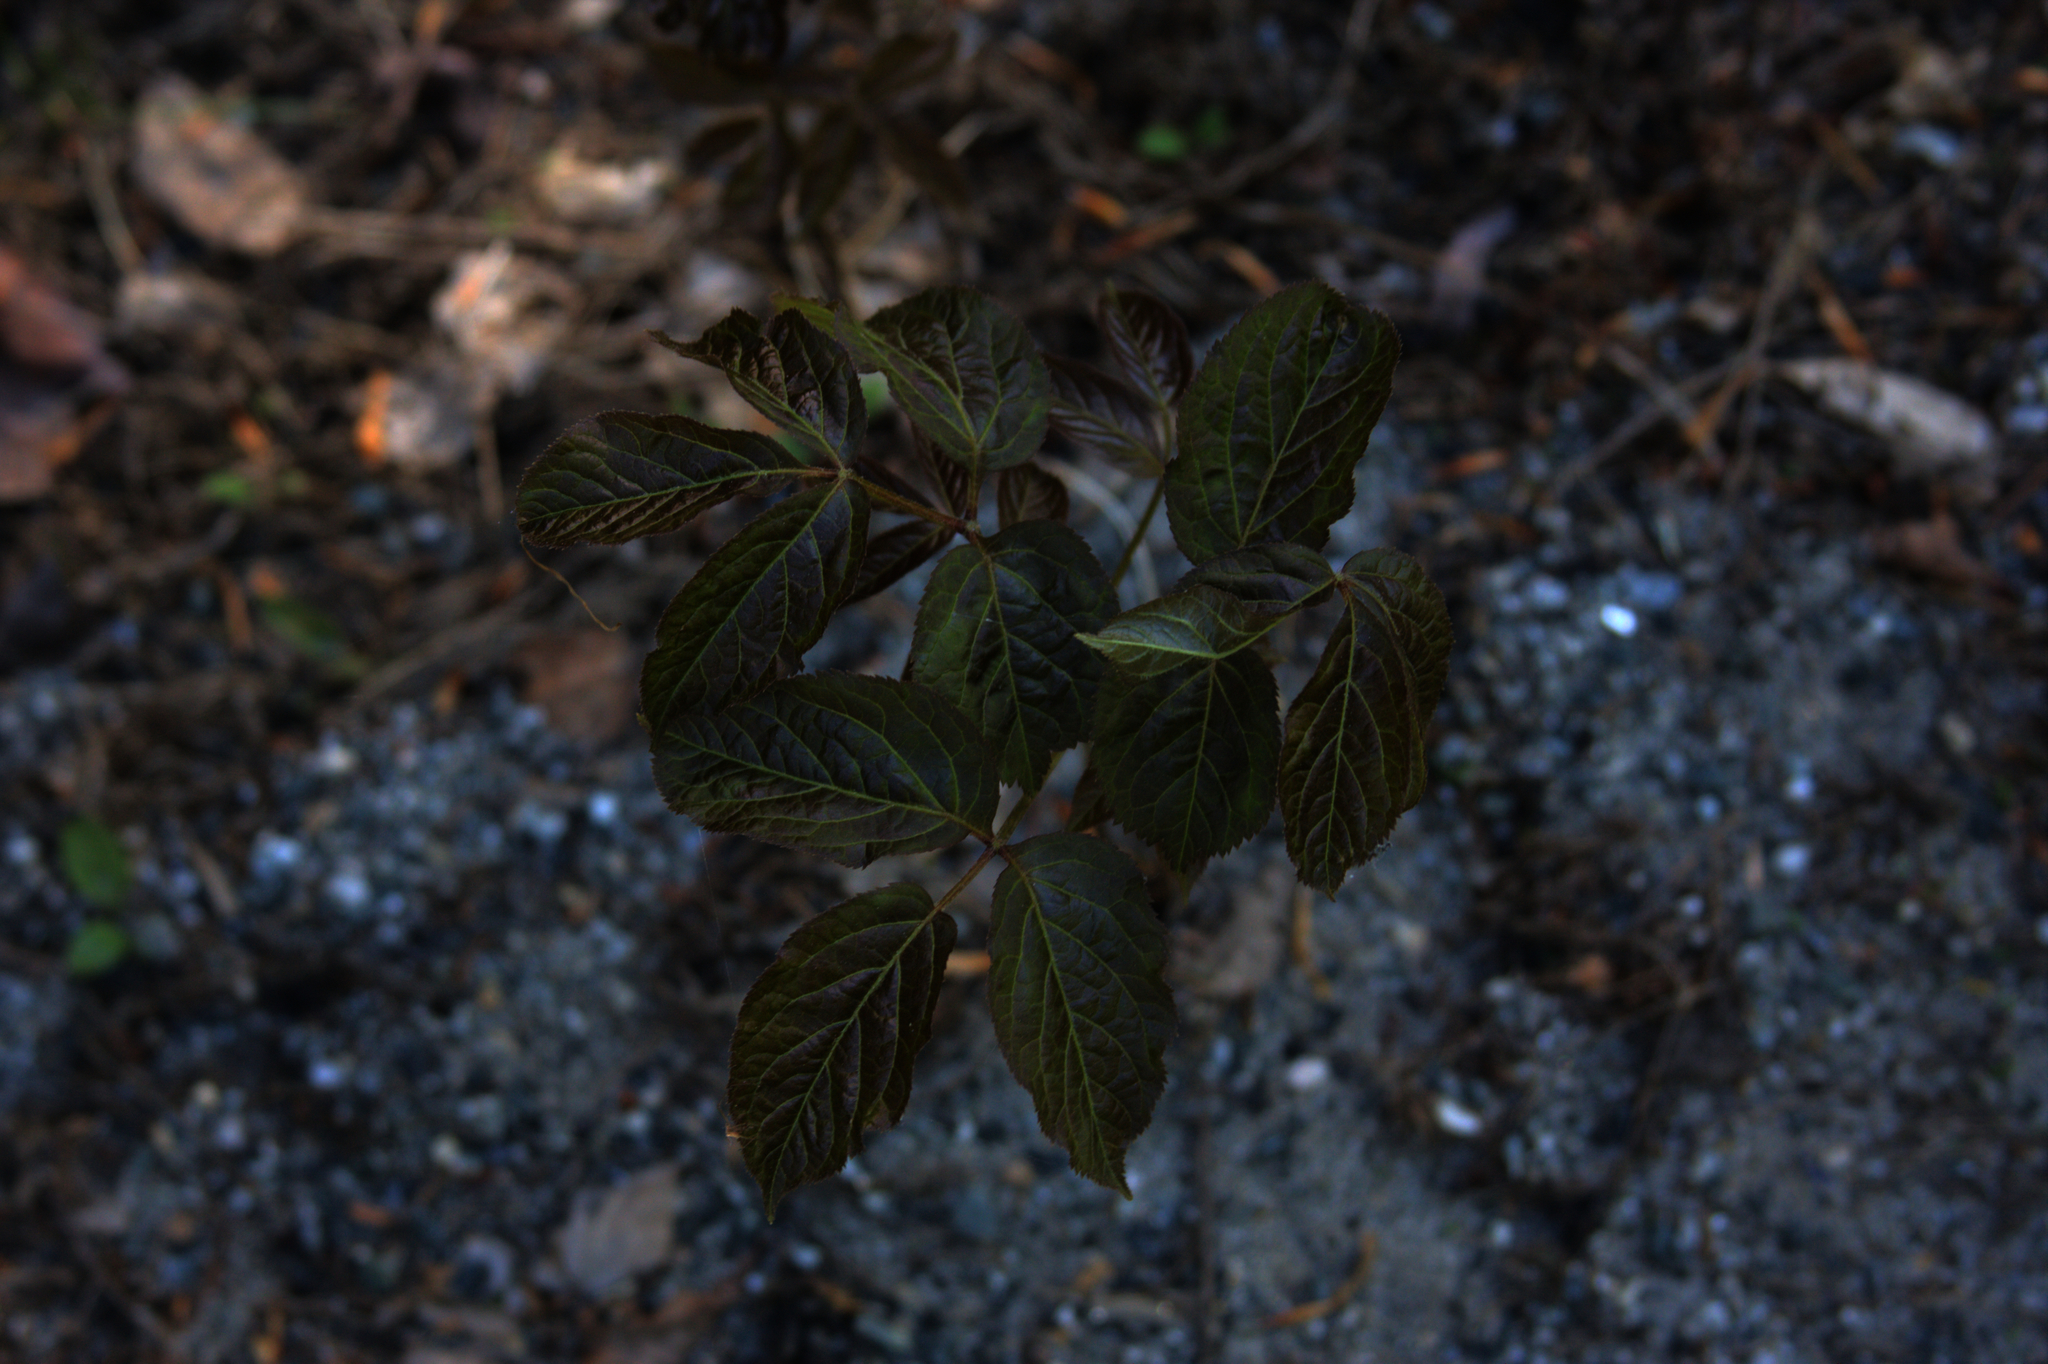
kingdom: Plantae
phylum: Tracheophyta
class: Magnoliopsida
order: Apiales
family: Araliaceae
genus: Aralia
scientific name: Aralia nudicaulis
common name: Wild sarsaparilla
